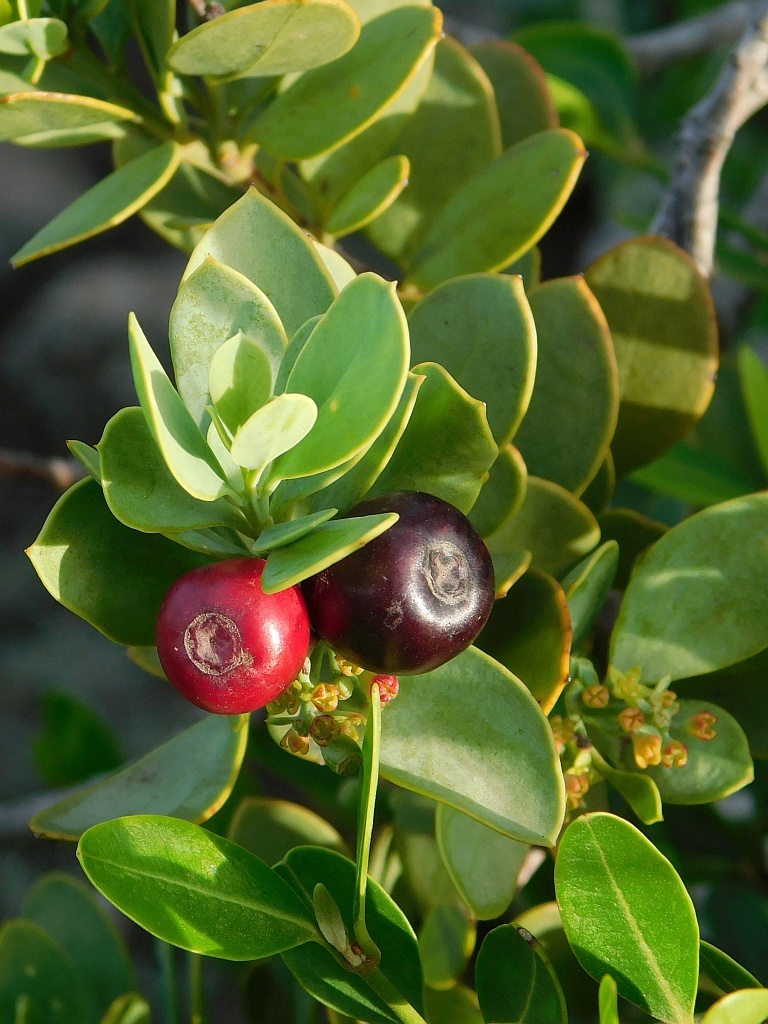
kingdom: Plantae
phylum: Tracheophyta
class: Magnoliopsida
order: Santalales
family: Santalaceae
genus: Osyris
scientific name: Osyris compressa
